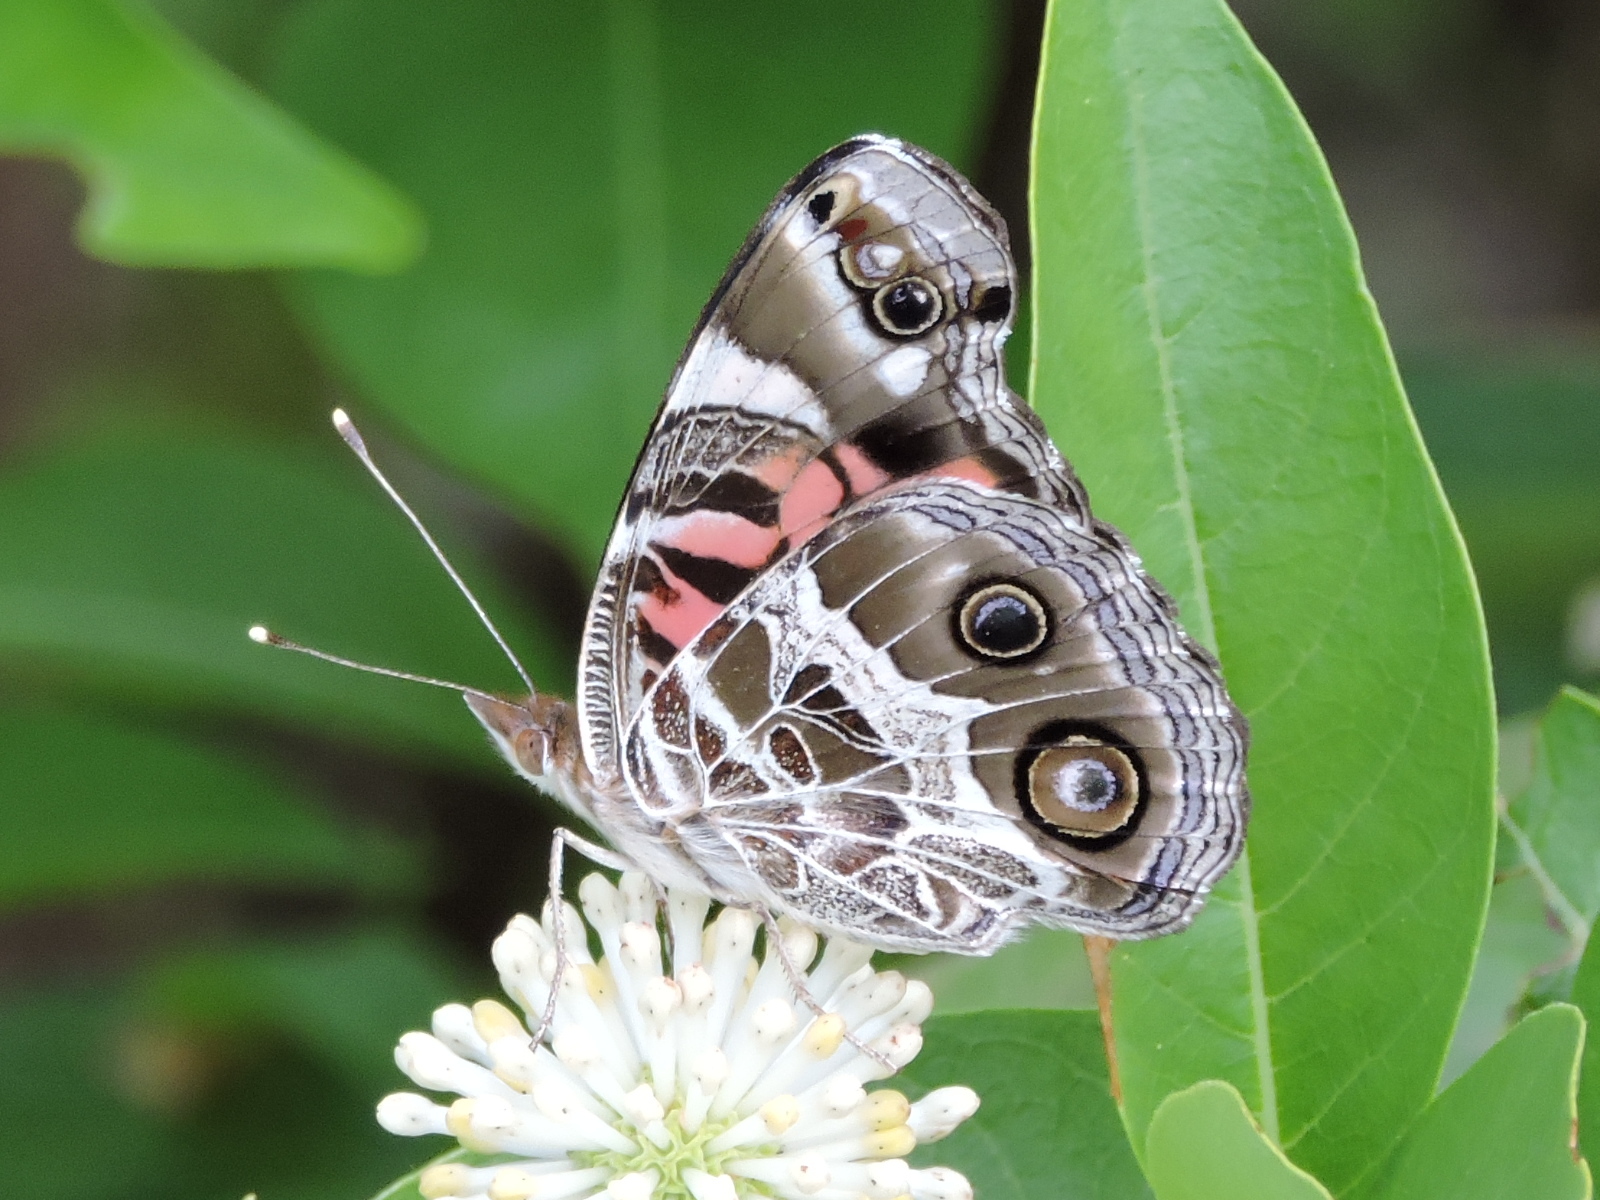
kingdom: Animalia
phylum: Arthropoda
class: Insecta
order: Lepidoptera
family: Nymphalidae
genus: Vanessa
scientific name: Vanessa virginiensis
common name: American lady
